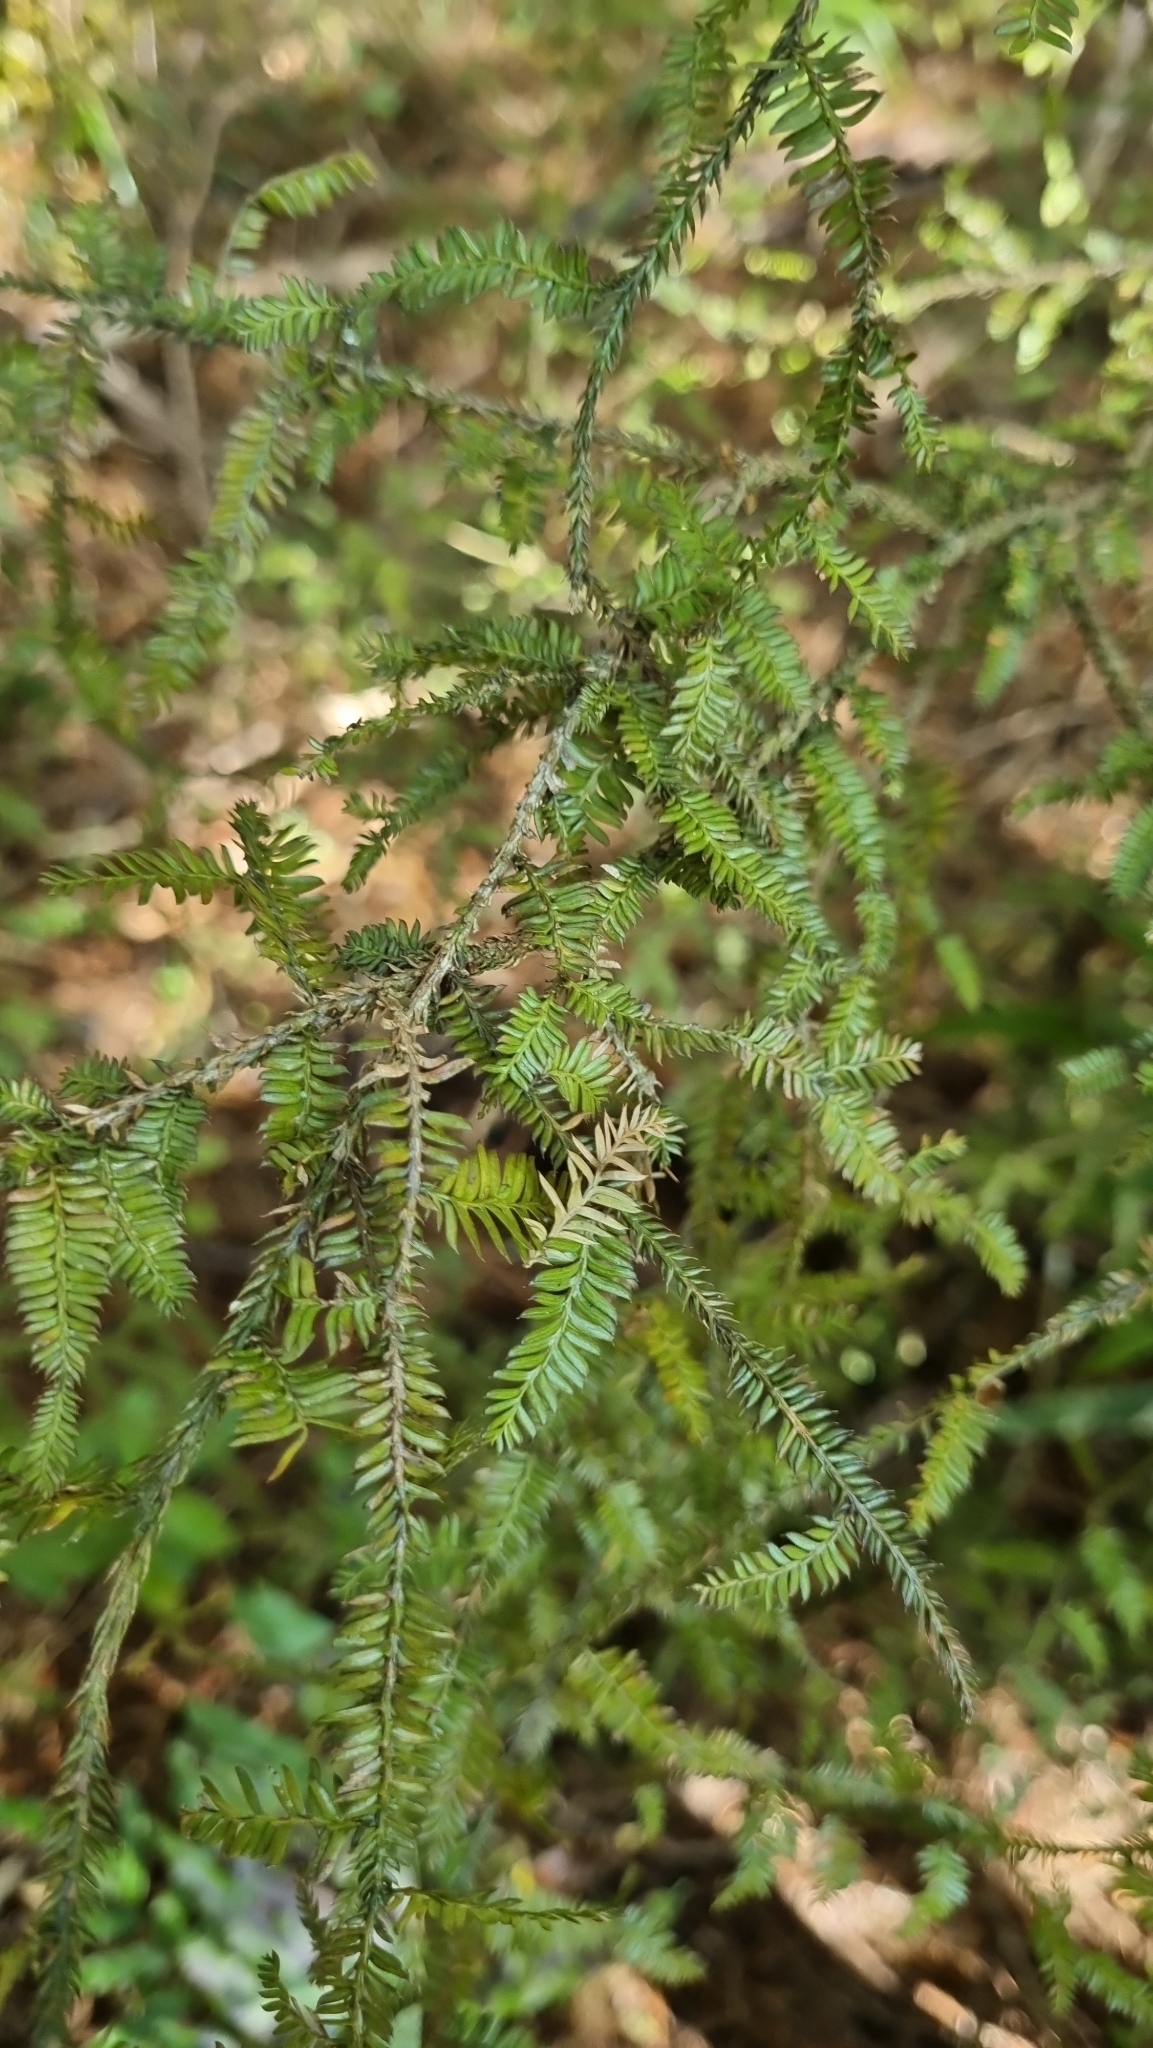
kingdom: Plantae
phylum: Tracheophyta
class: Pinopsida
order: Pinales
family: Podocarpaceae
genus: Dacrycarpus
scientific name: Dacrycarpus dacrydioides
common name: White pine
